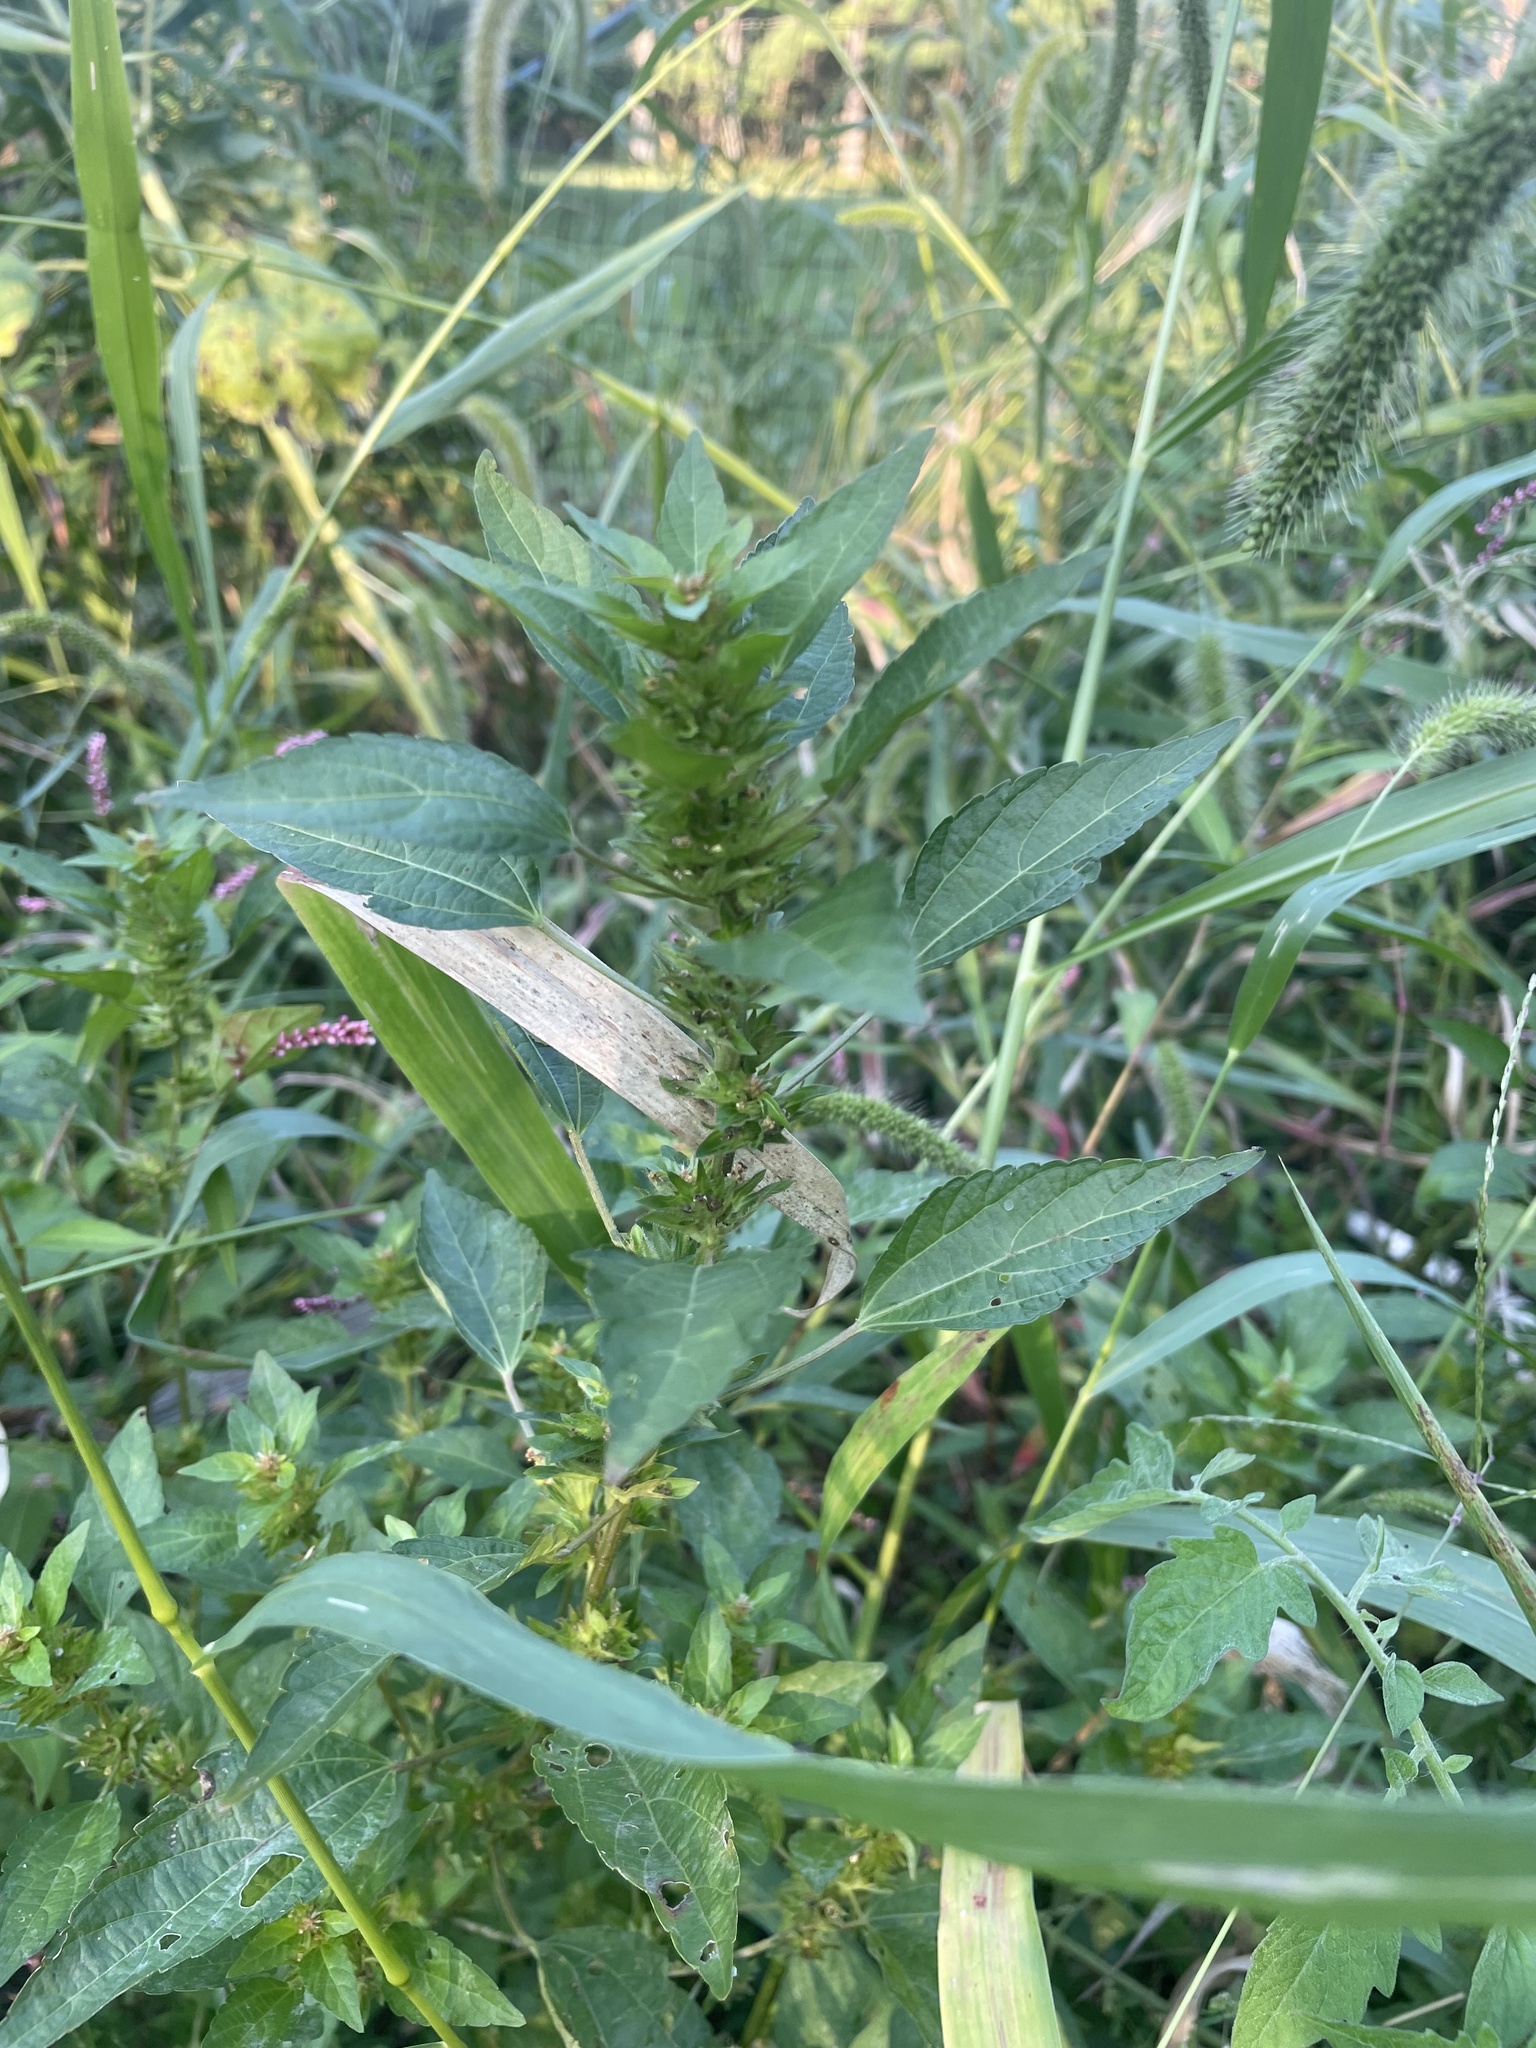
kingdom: Plantae
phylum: Tracheophyta
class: Magnoliopsida
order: Malpighiales
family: Euphorbiaceae
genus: Acalypha
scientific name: Acalypha rhomboidea
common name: Rhombic copperleaf
